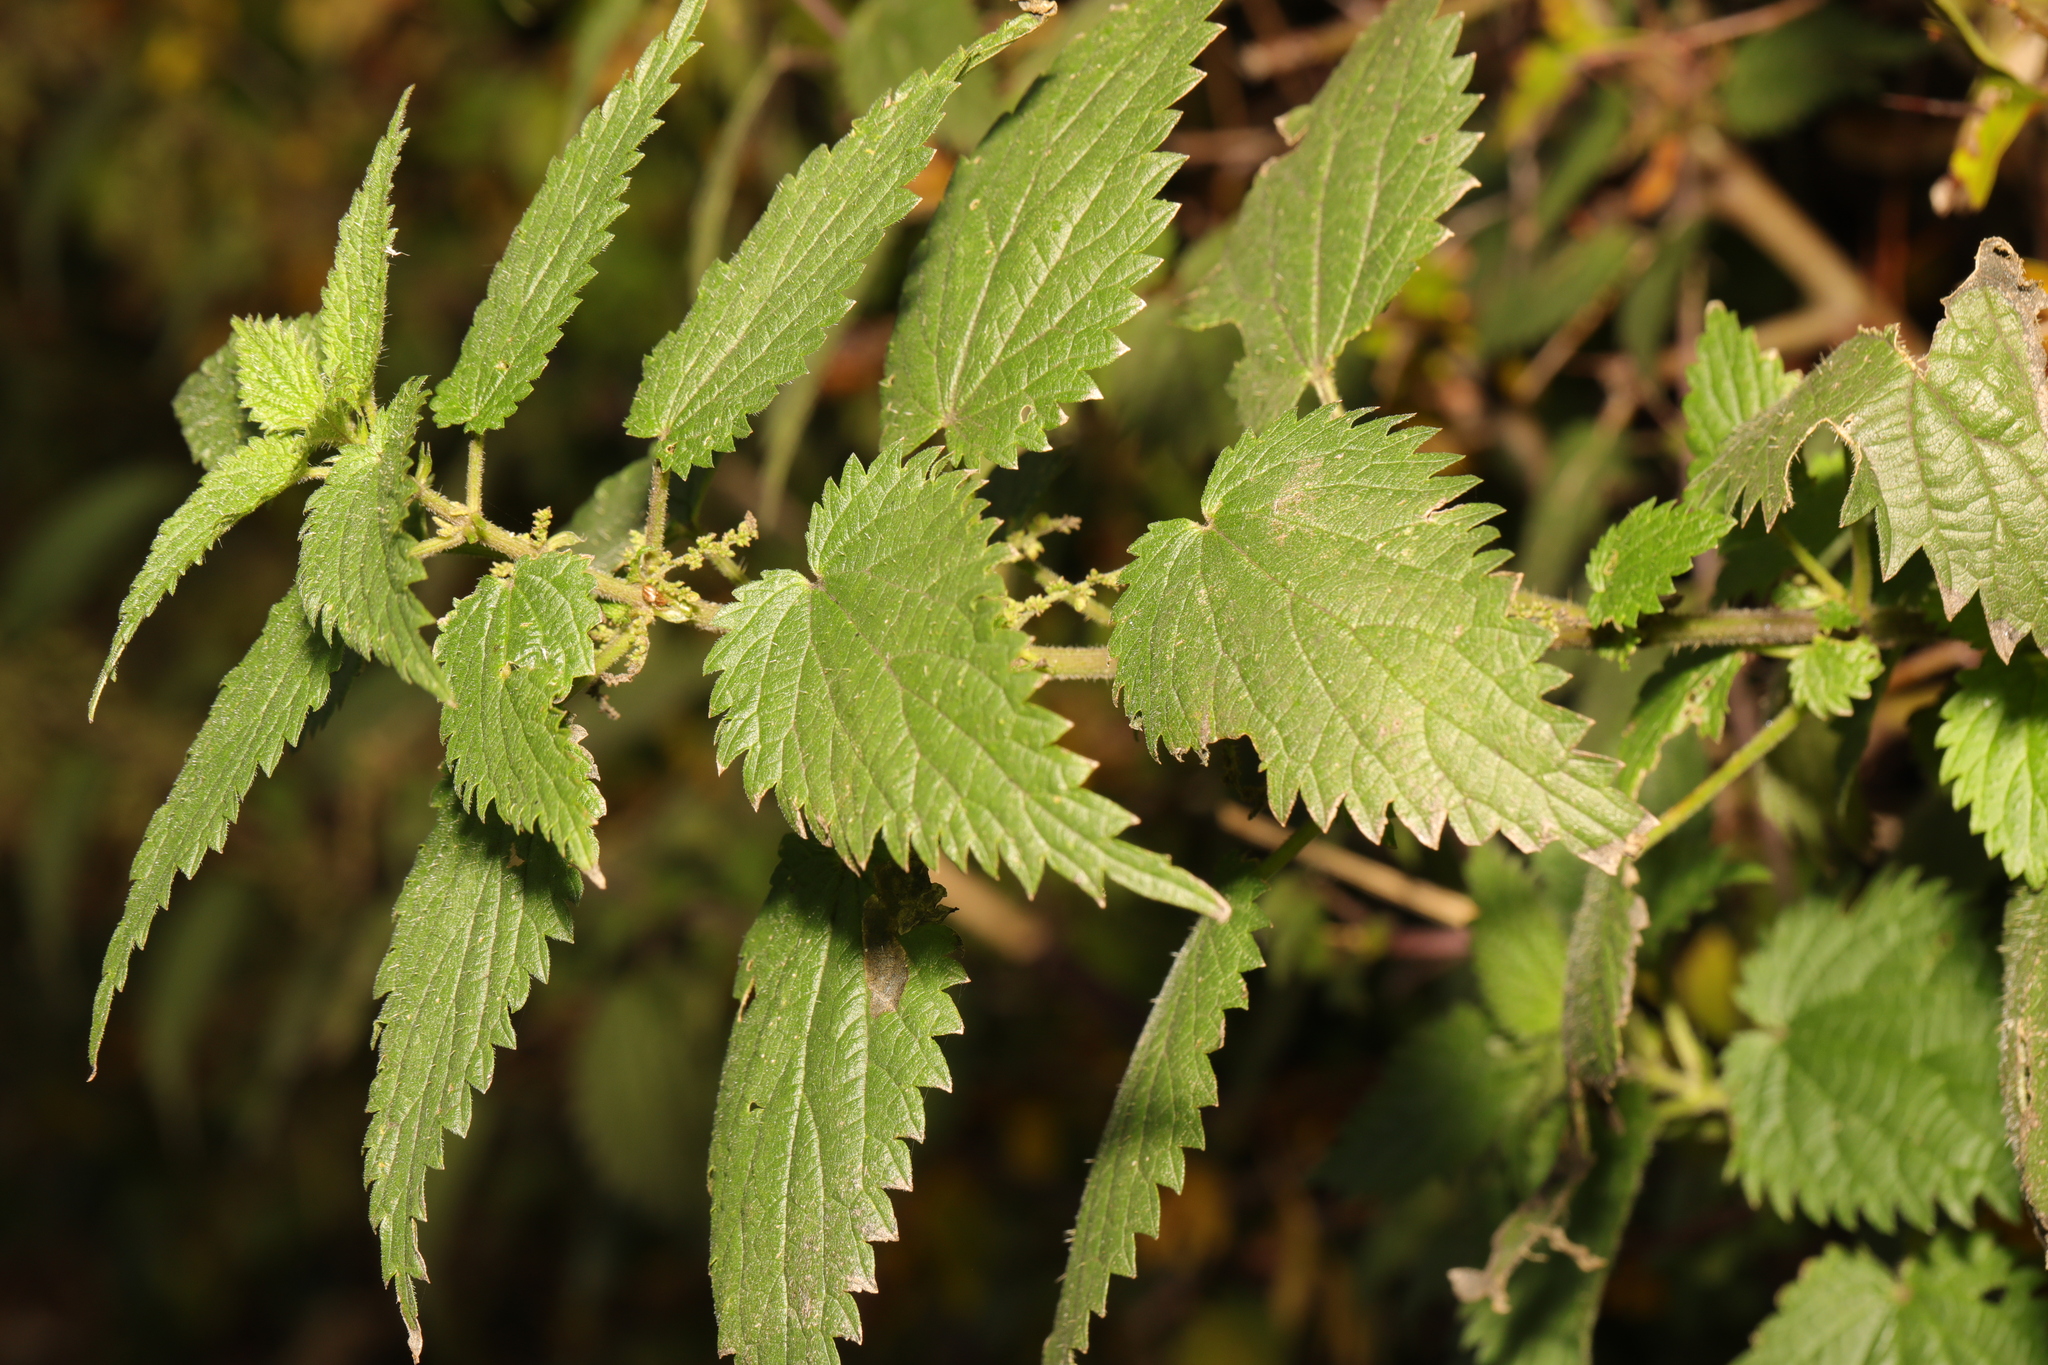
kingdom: Plantae
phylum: Tracheophyta
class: Magnoliopsida
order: Rosales
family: Urticaceae
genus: Urtica
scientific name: Urtica dioica
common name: Common nettle
